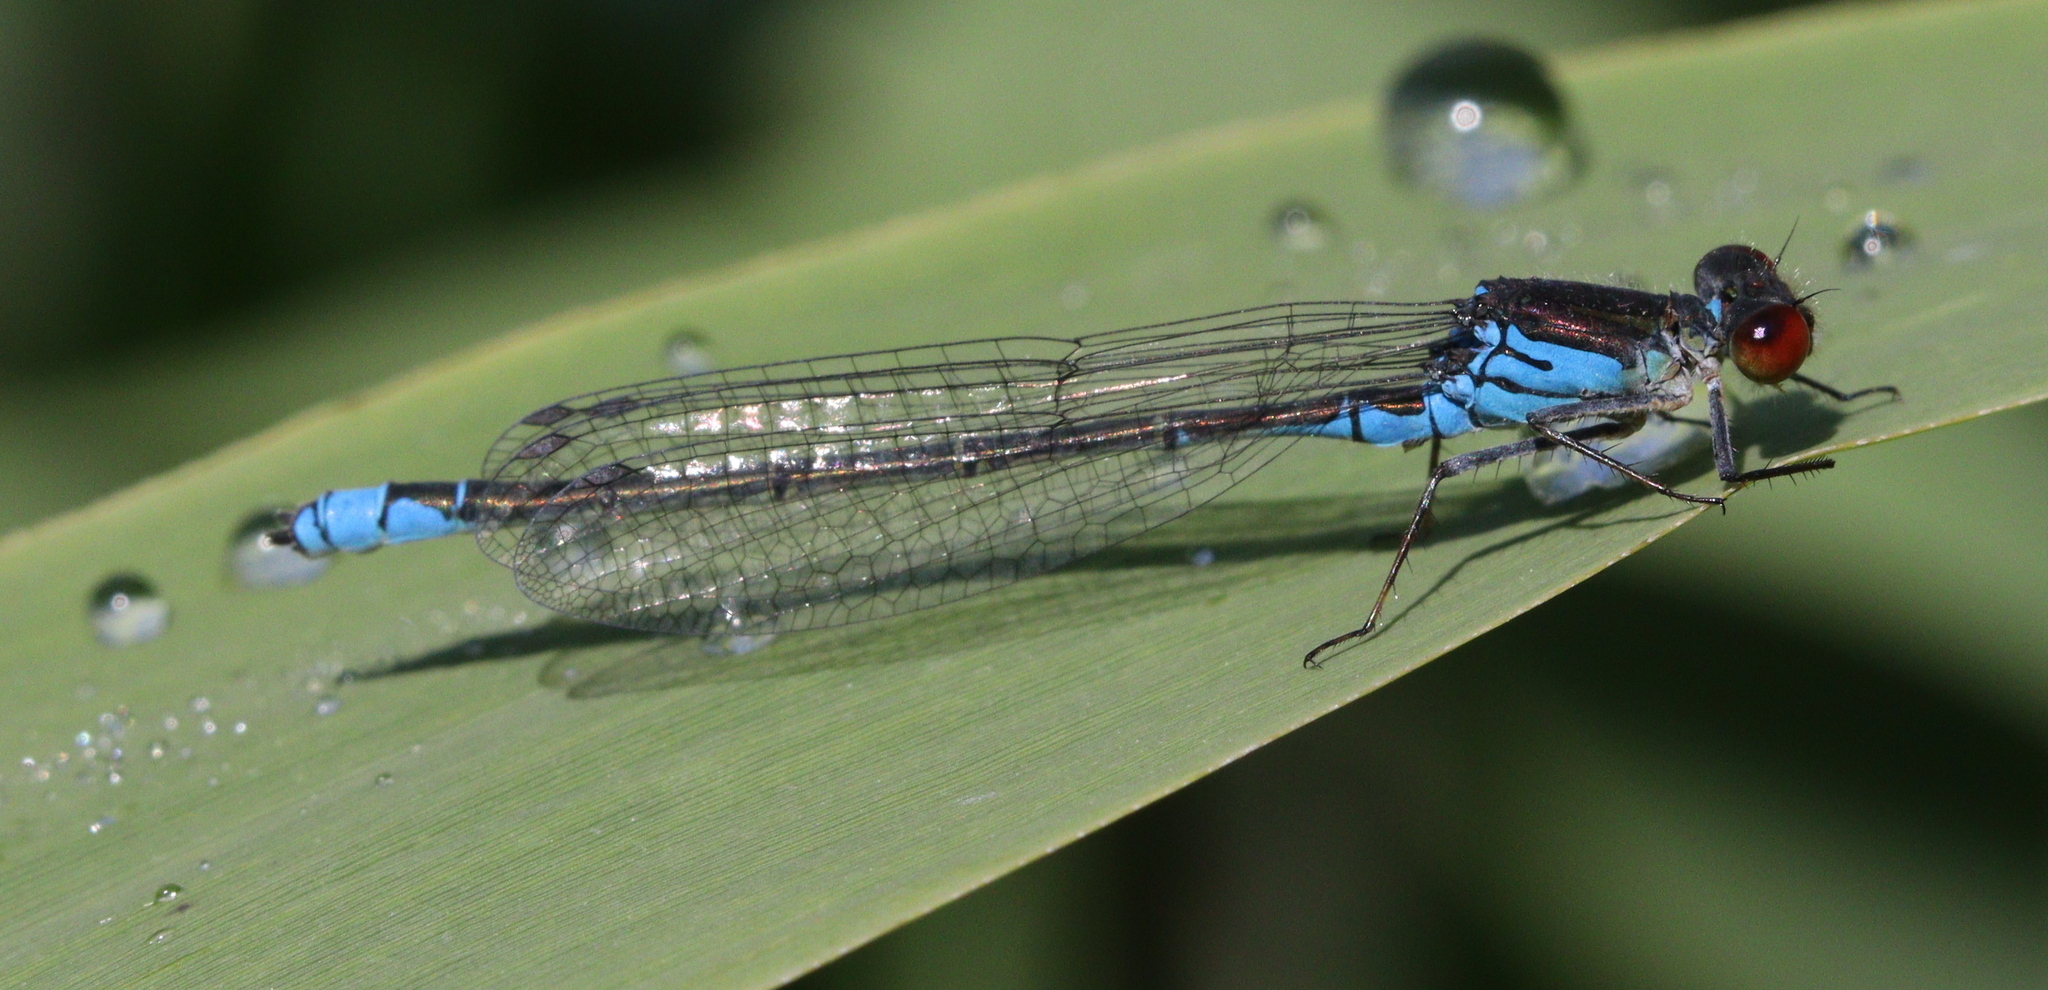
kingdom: Animalia
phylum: Arthropoda
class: Insecta
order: Odonata
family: Coenagrionidae
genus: Erythromma
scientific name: Erythromma viridulum
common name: Small red-eyed damselfly
